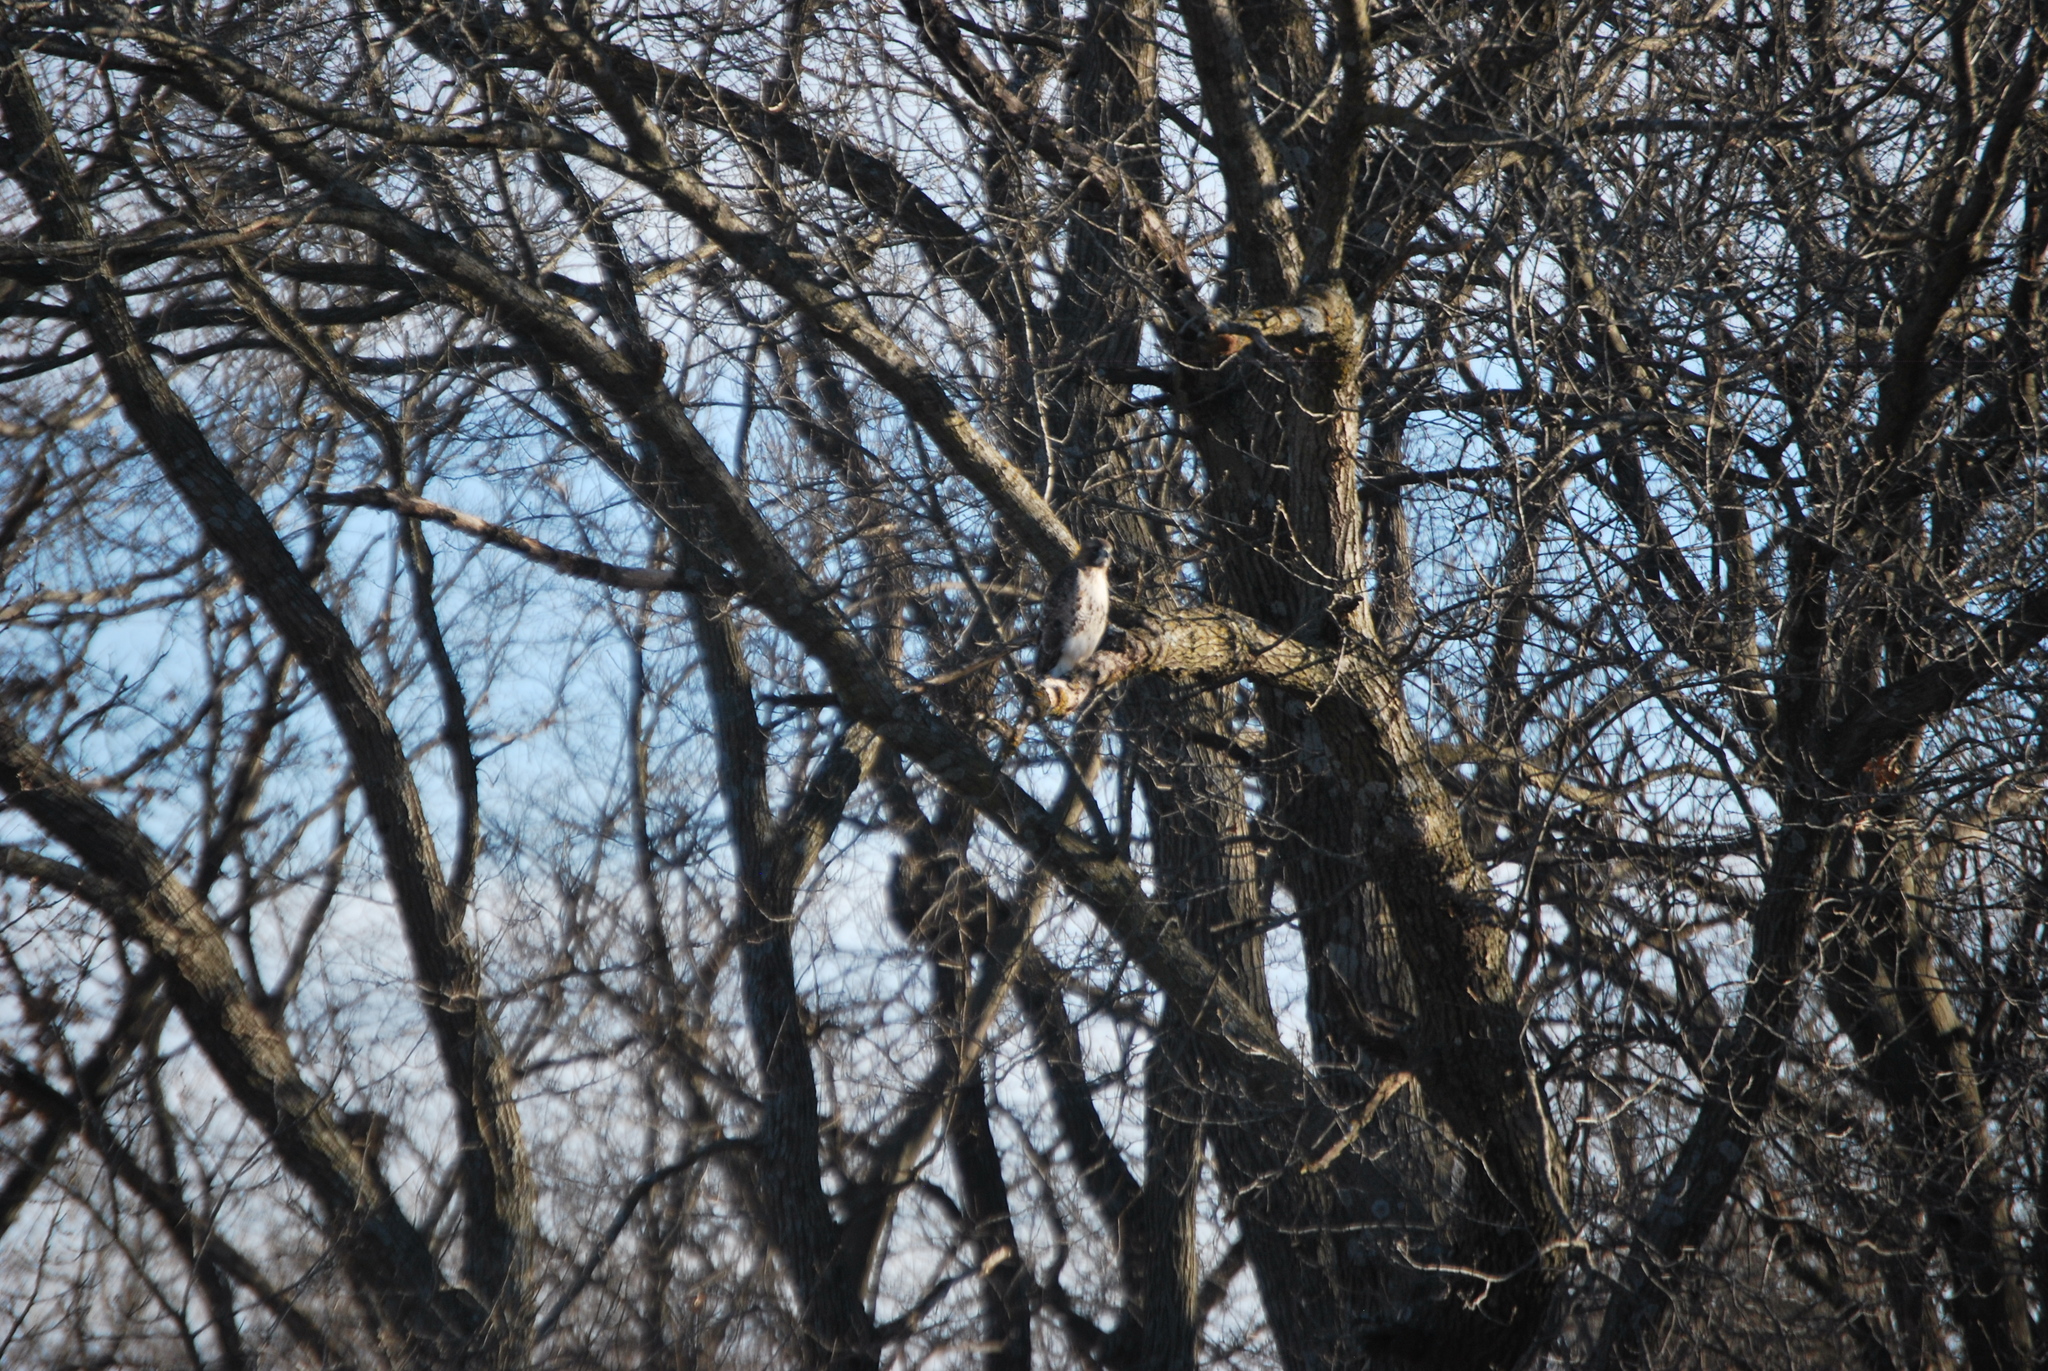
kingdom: Animalia
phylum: Chordata
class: Aves
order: Accipitriformes
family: Accipitridae
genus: Buteo
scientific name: Buteo jamaicensis
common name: Red-tailed hawk
